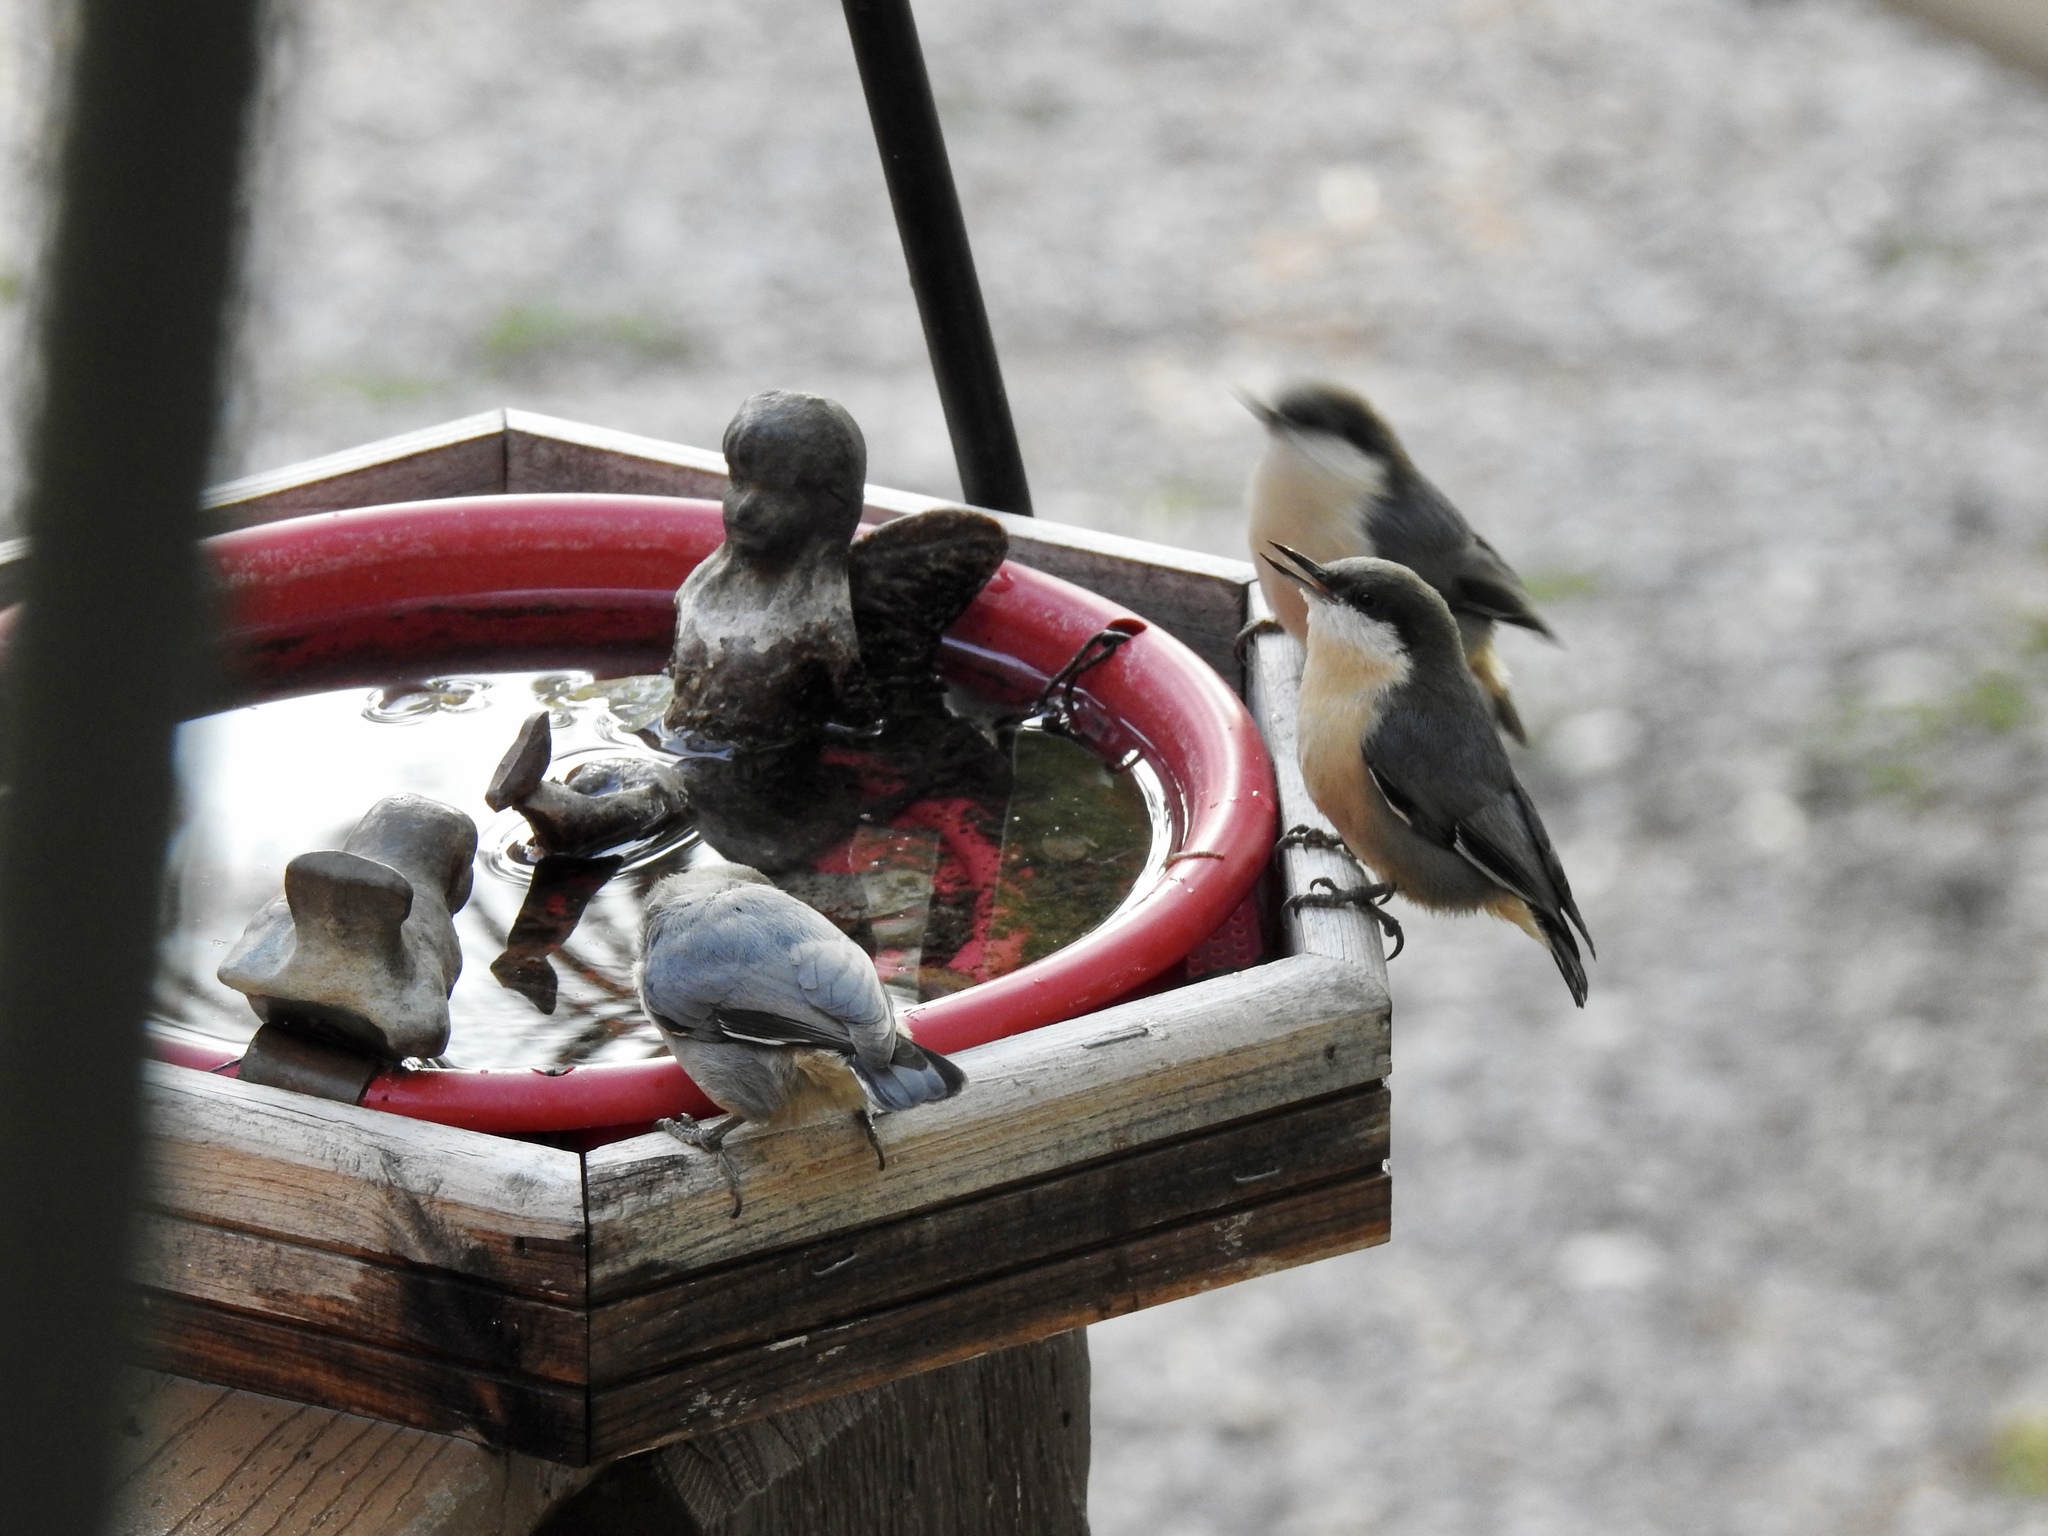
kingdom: Animalia
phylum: Chordata
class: Aves
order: Passeriformes
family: Sittidae
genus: Sitta
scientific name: Sitta pygmaea
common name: Pygmy nuthatch
